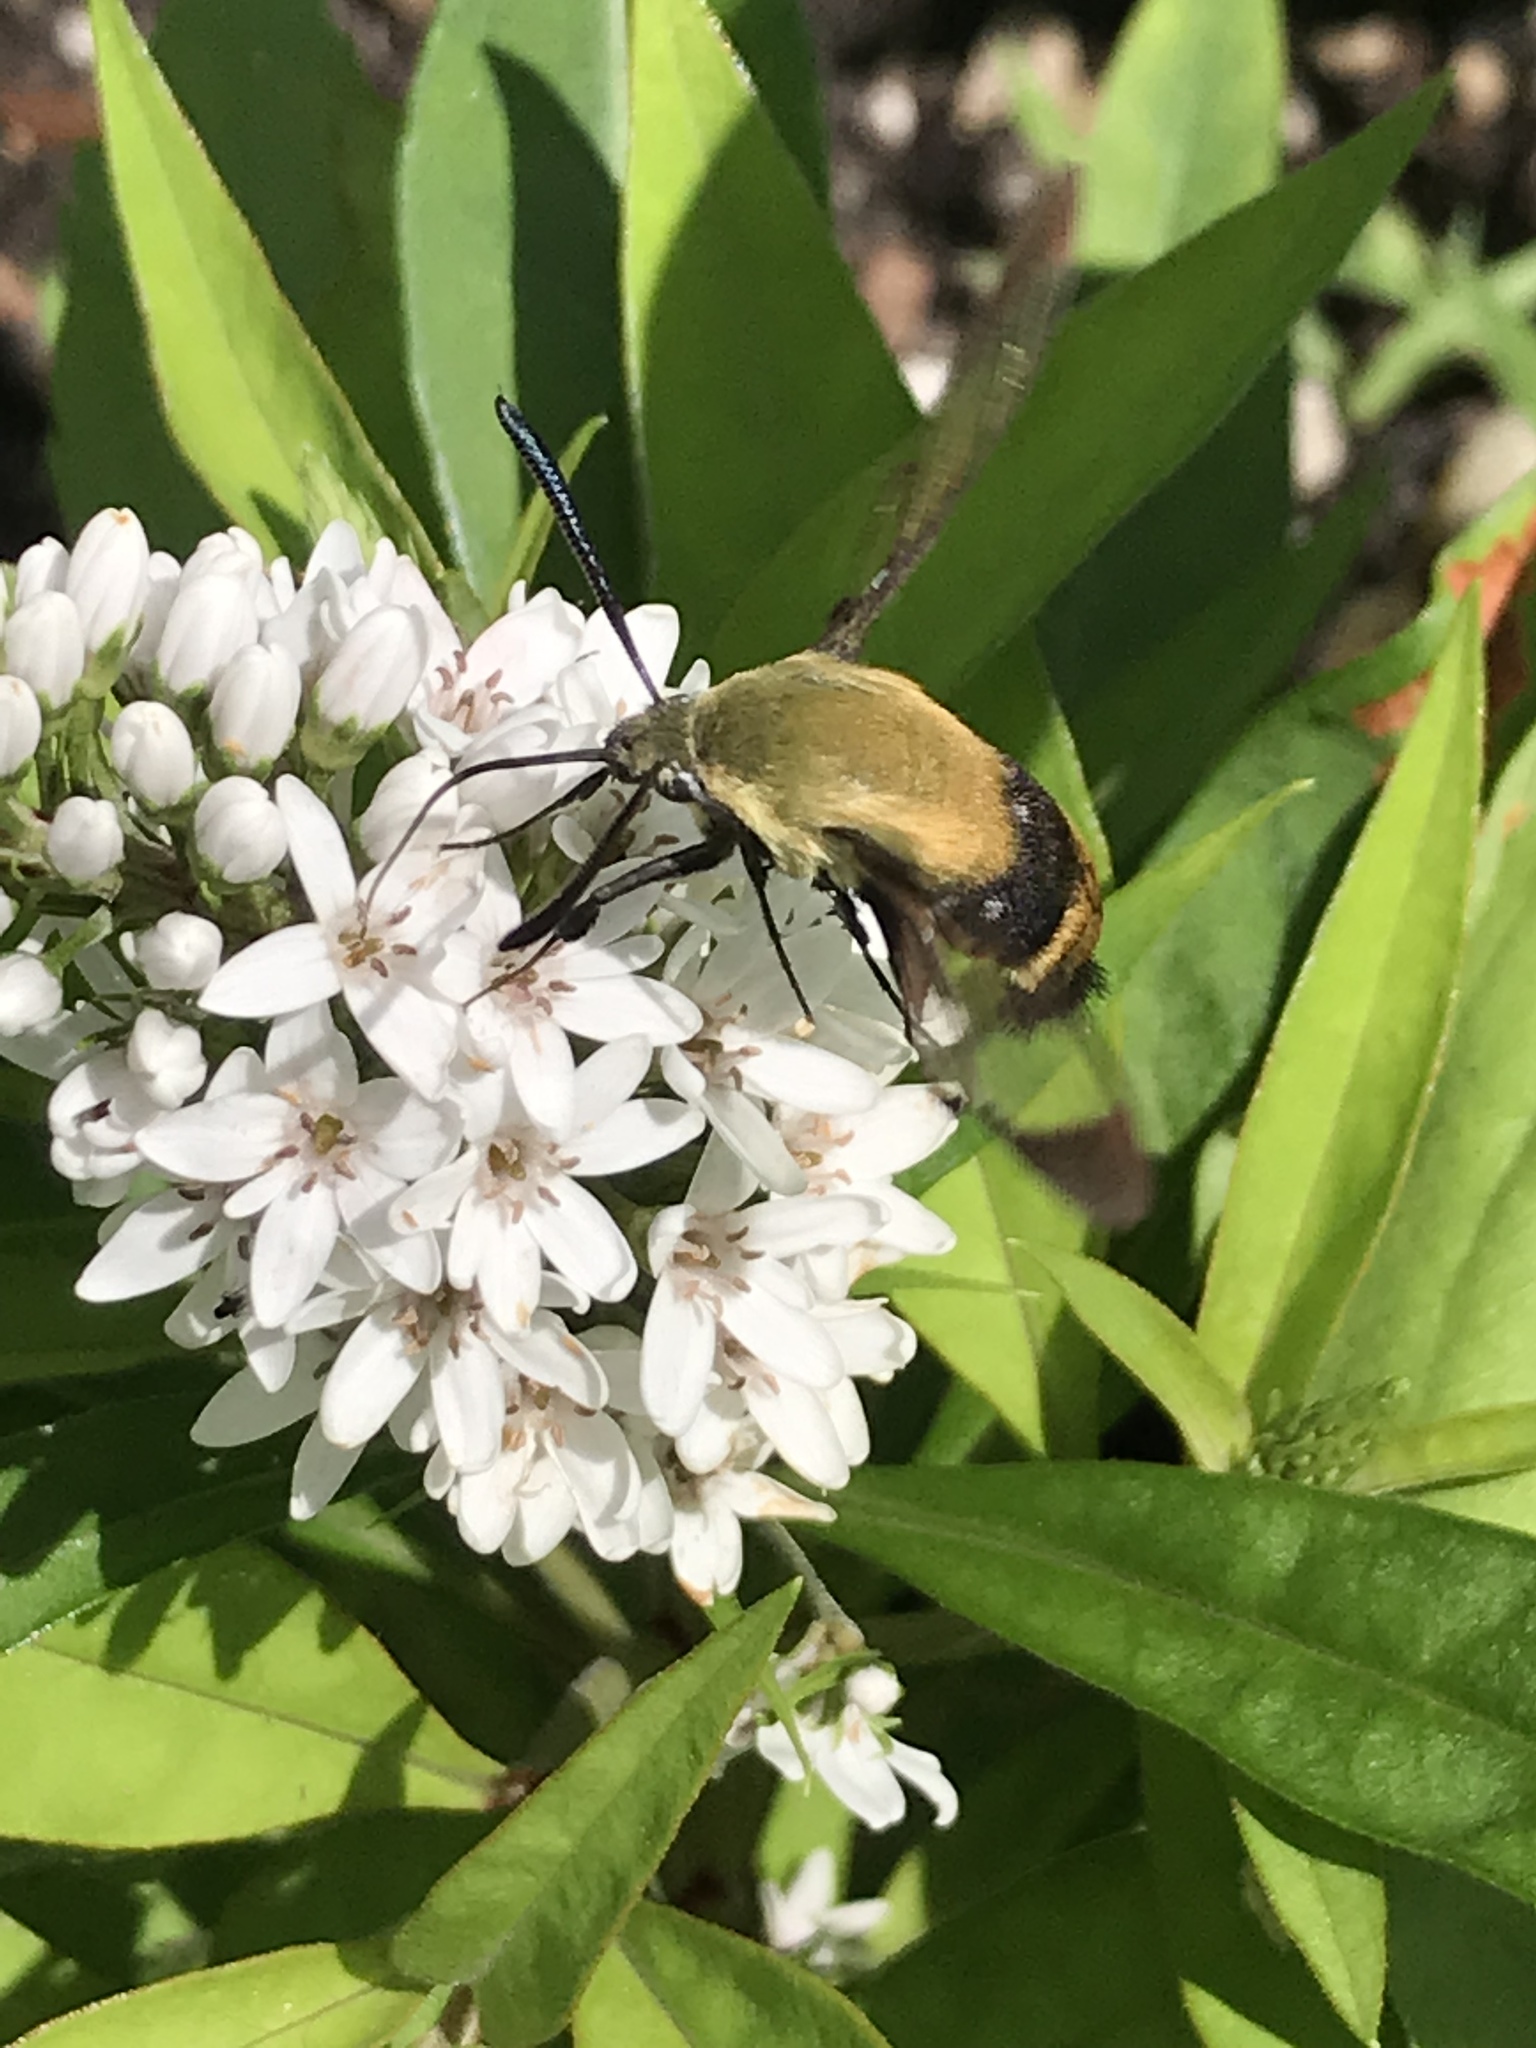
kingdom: Animalia
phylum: Arthropoda
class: Insecta
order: Lepidoptera
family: Sphingidae
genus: Hemaris
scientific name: Hemaris diffinis
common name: Bumblebee moth
